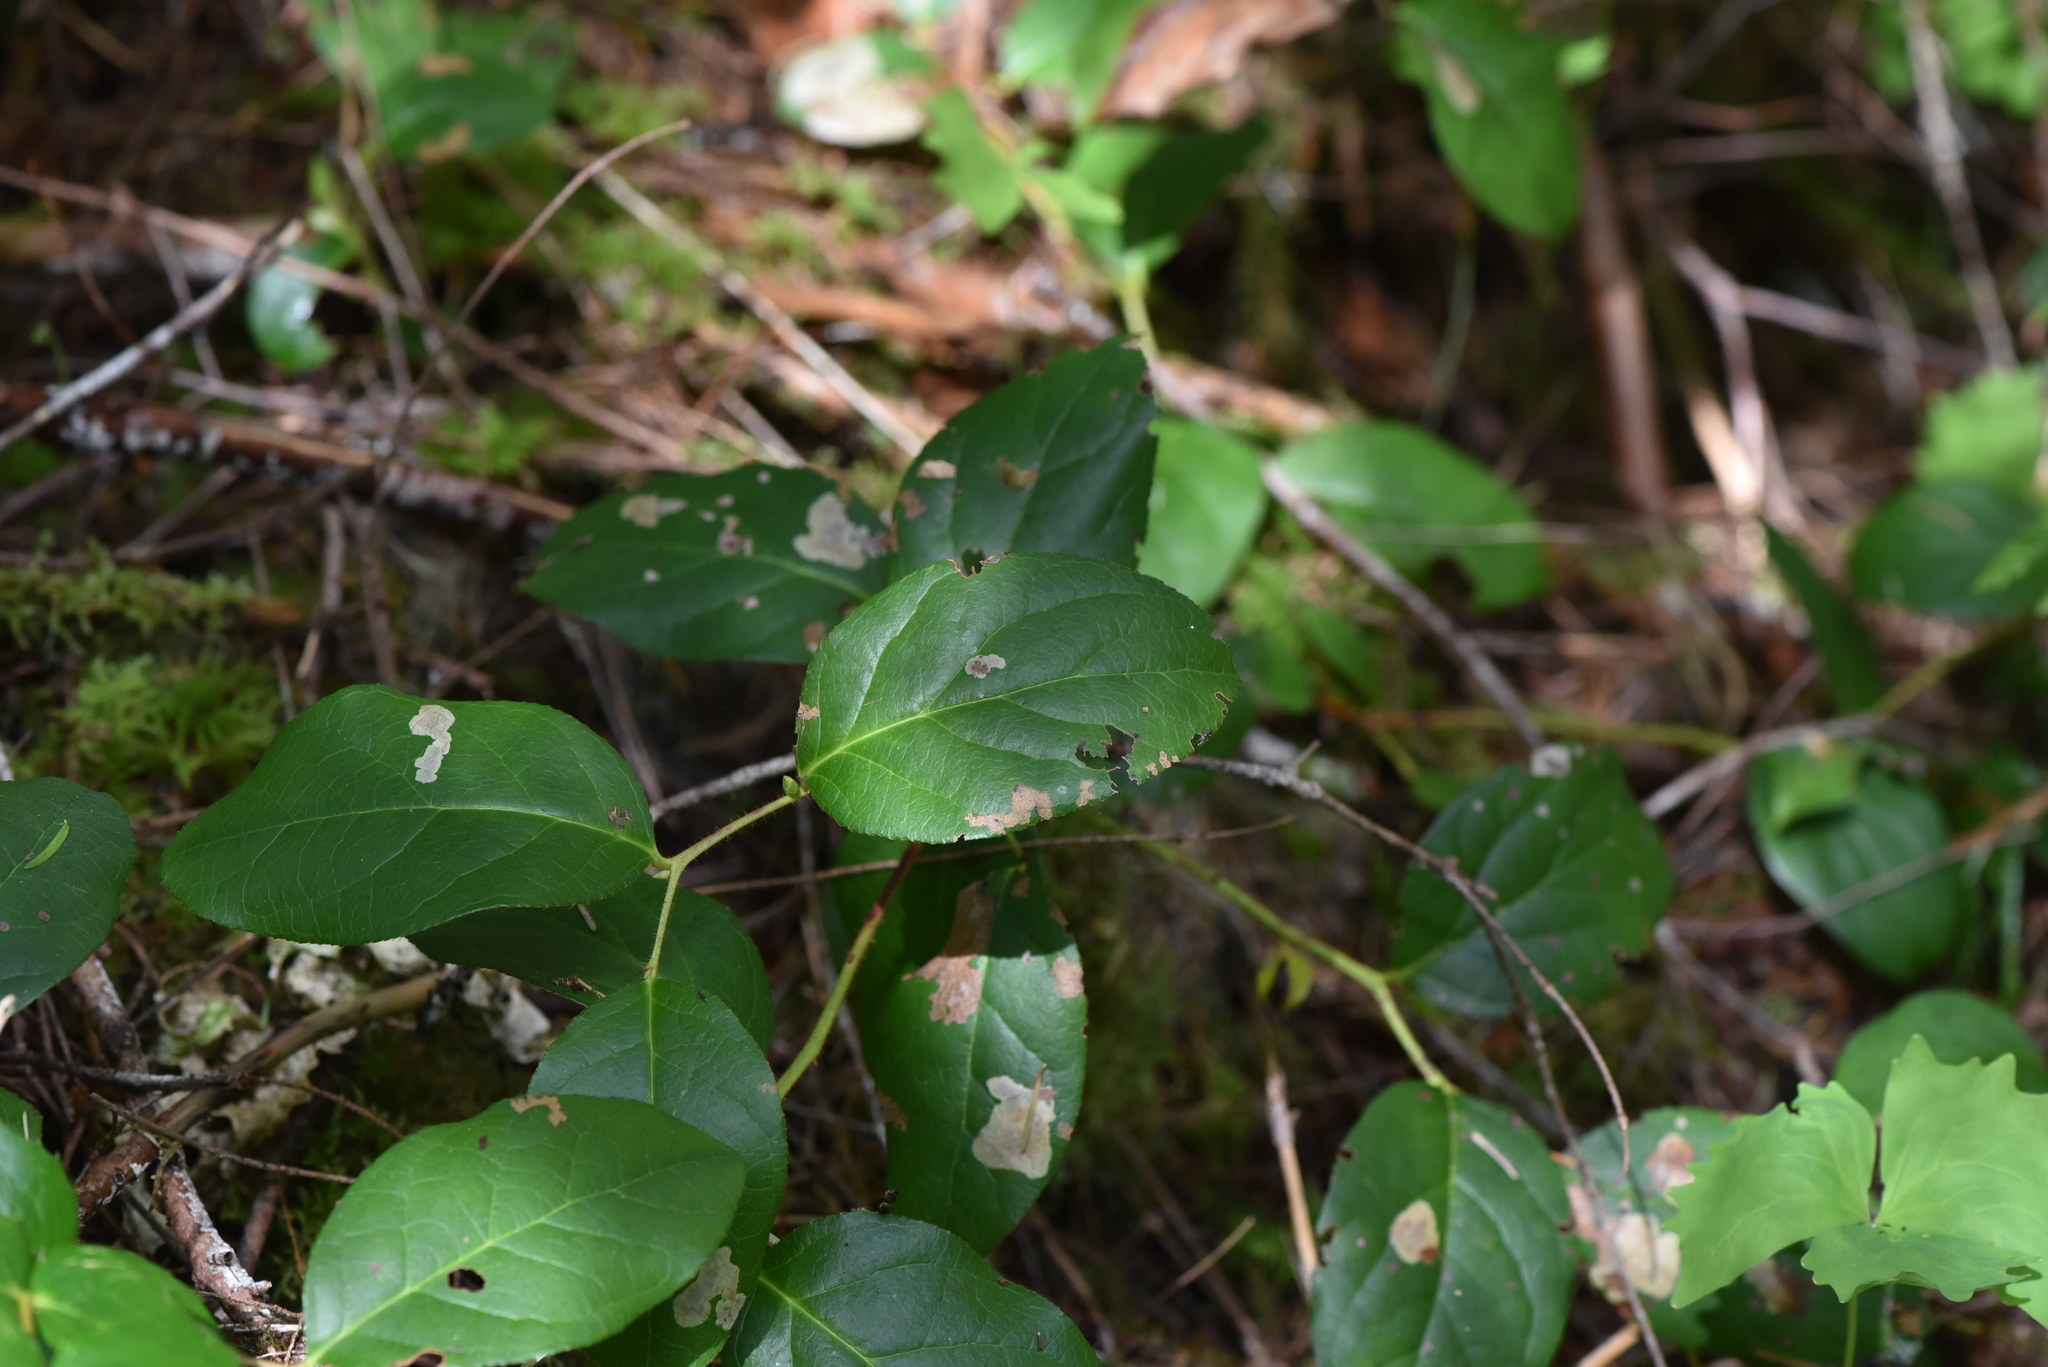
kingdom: Plantae
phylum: Tracheophyta
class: Magnoliopsida
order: Ericales
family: Ericaceae
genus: Gaultheria
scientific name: Gaultheria shallon
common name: Shallon
